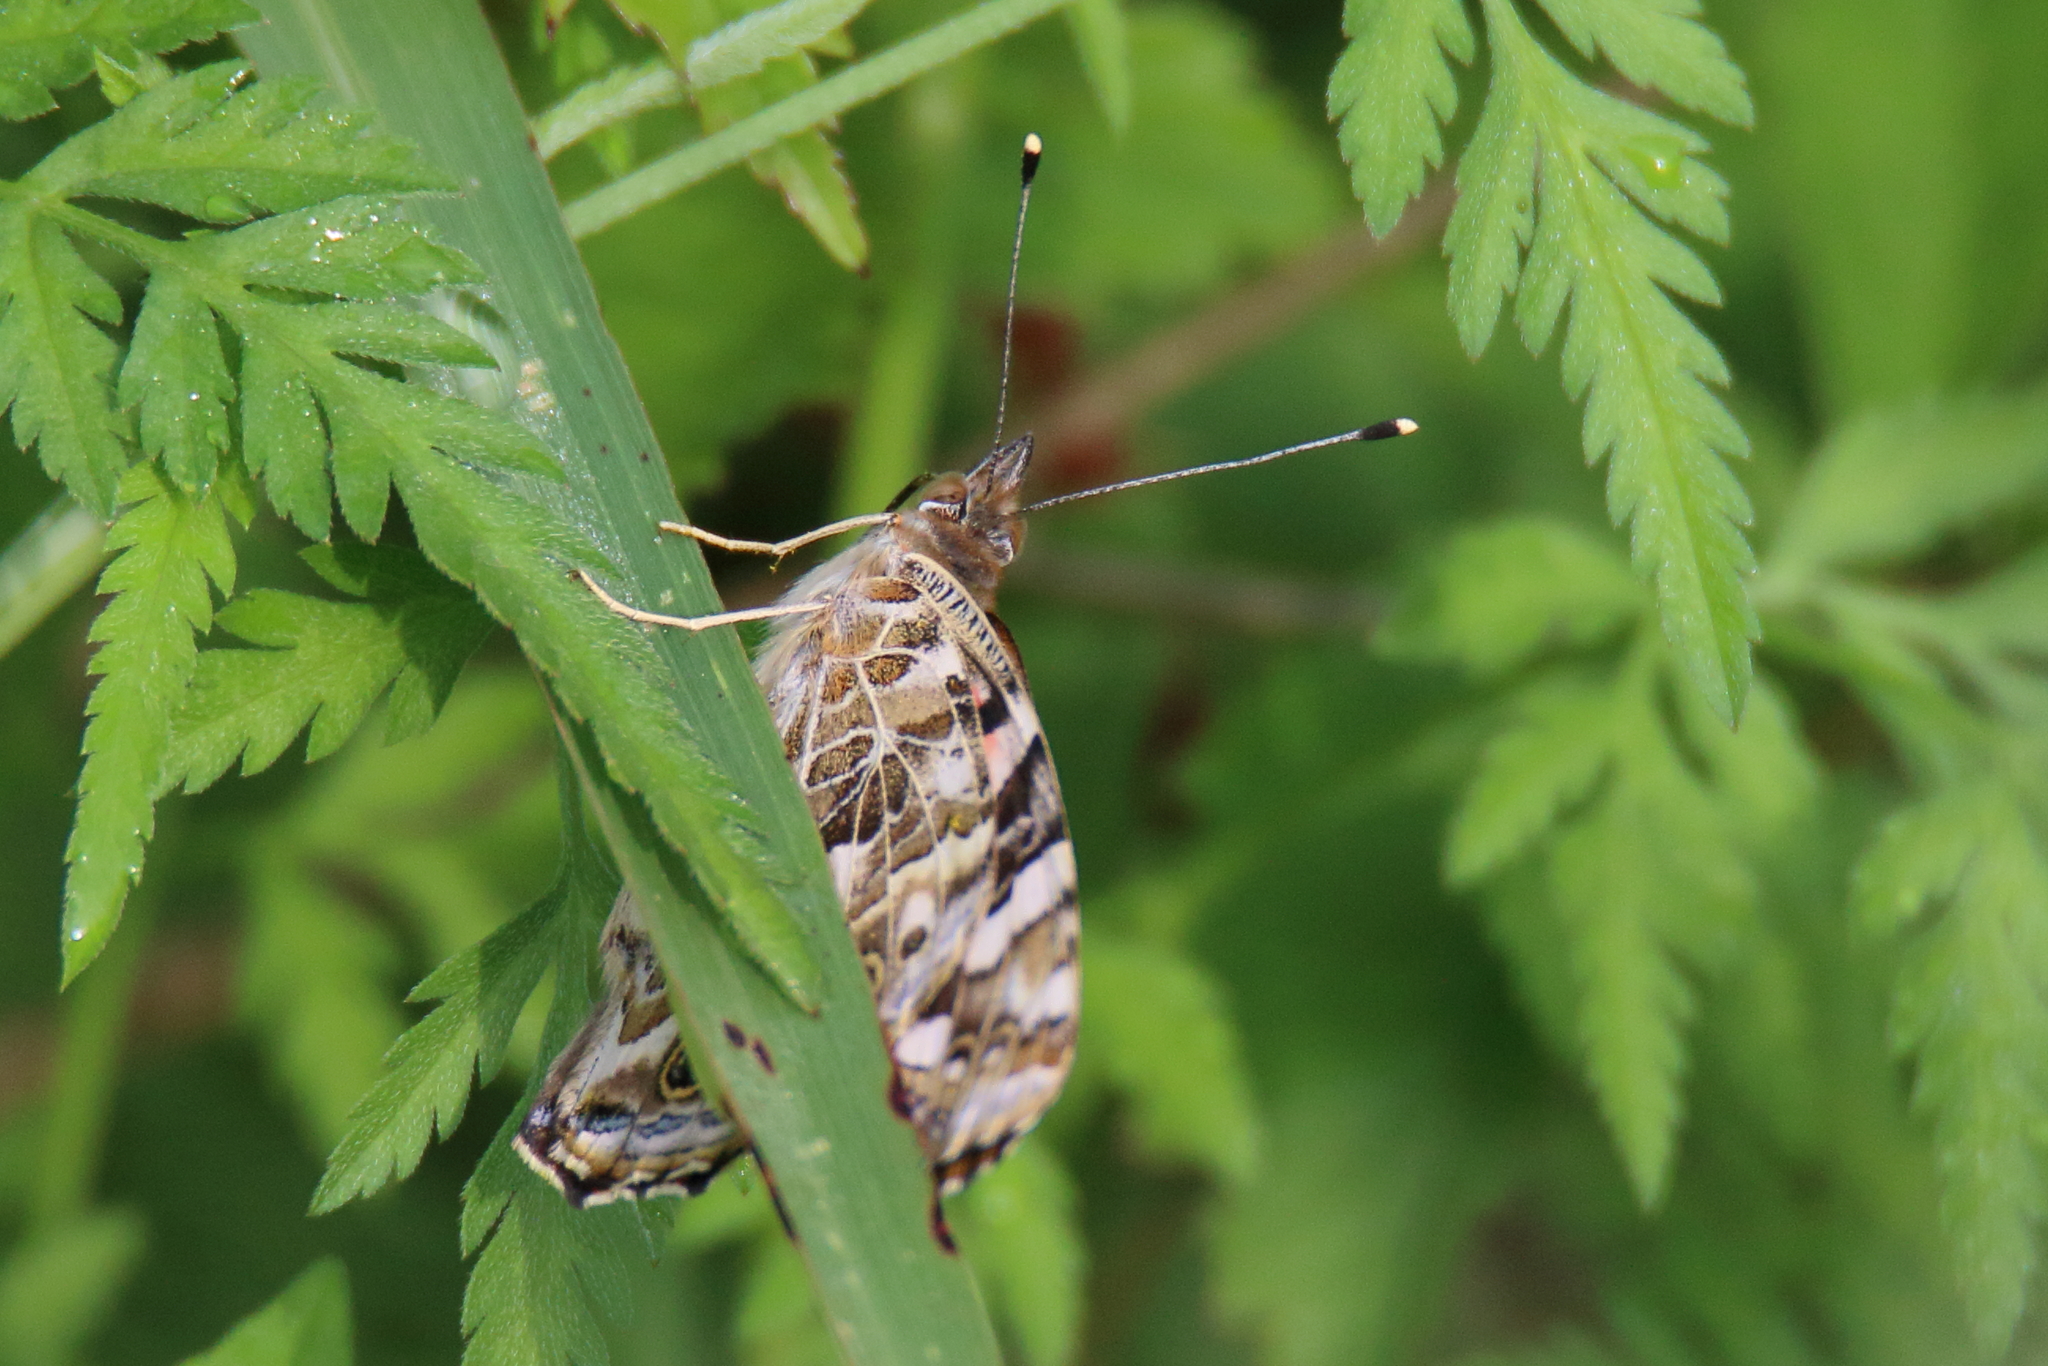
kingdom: Animalia
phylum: Arthropoda
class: Insecta
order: Lepidoptera
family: Nymphalidae
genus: Vanessa
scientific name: Vanessa cardui
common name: Painted lady
